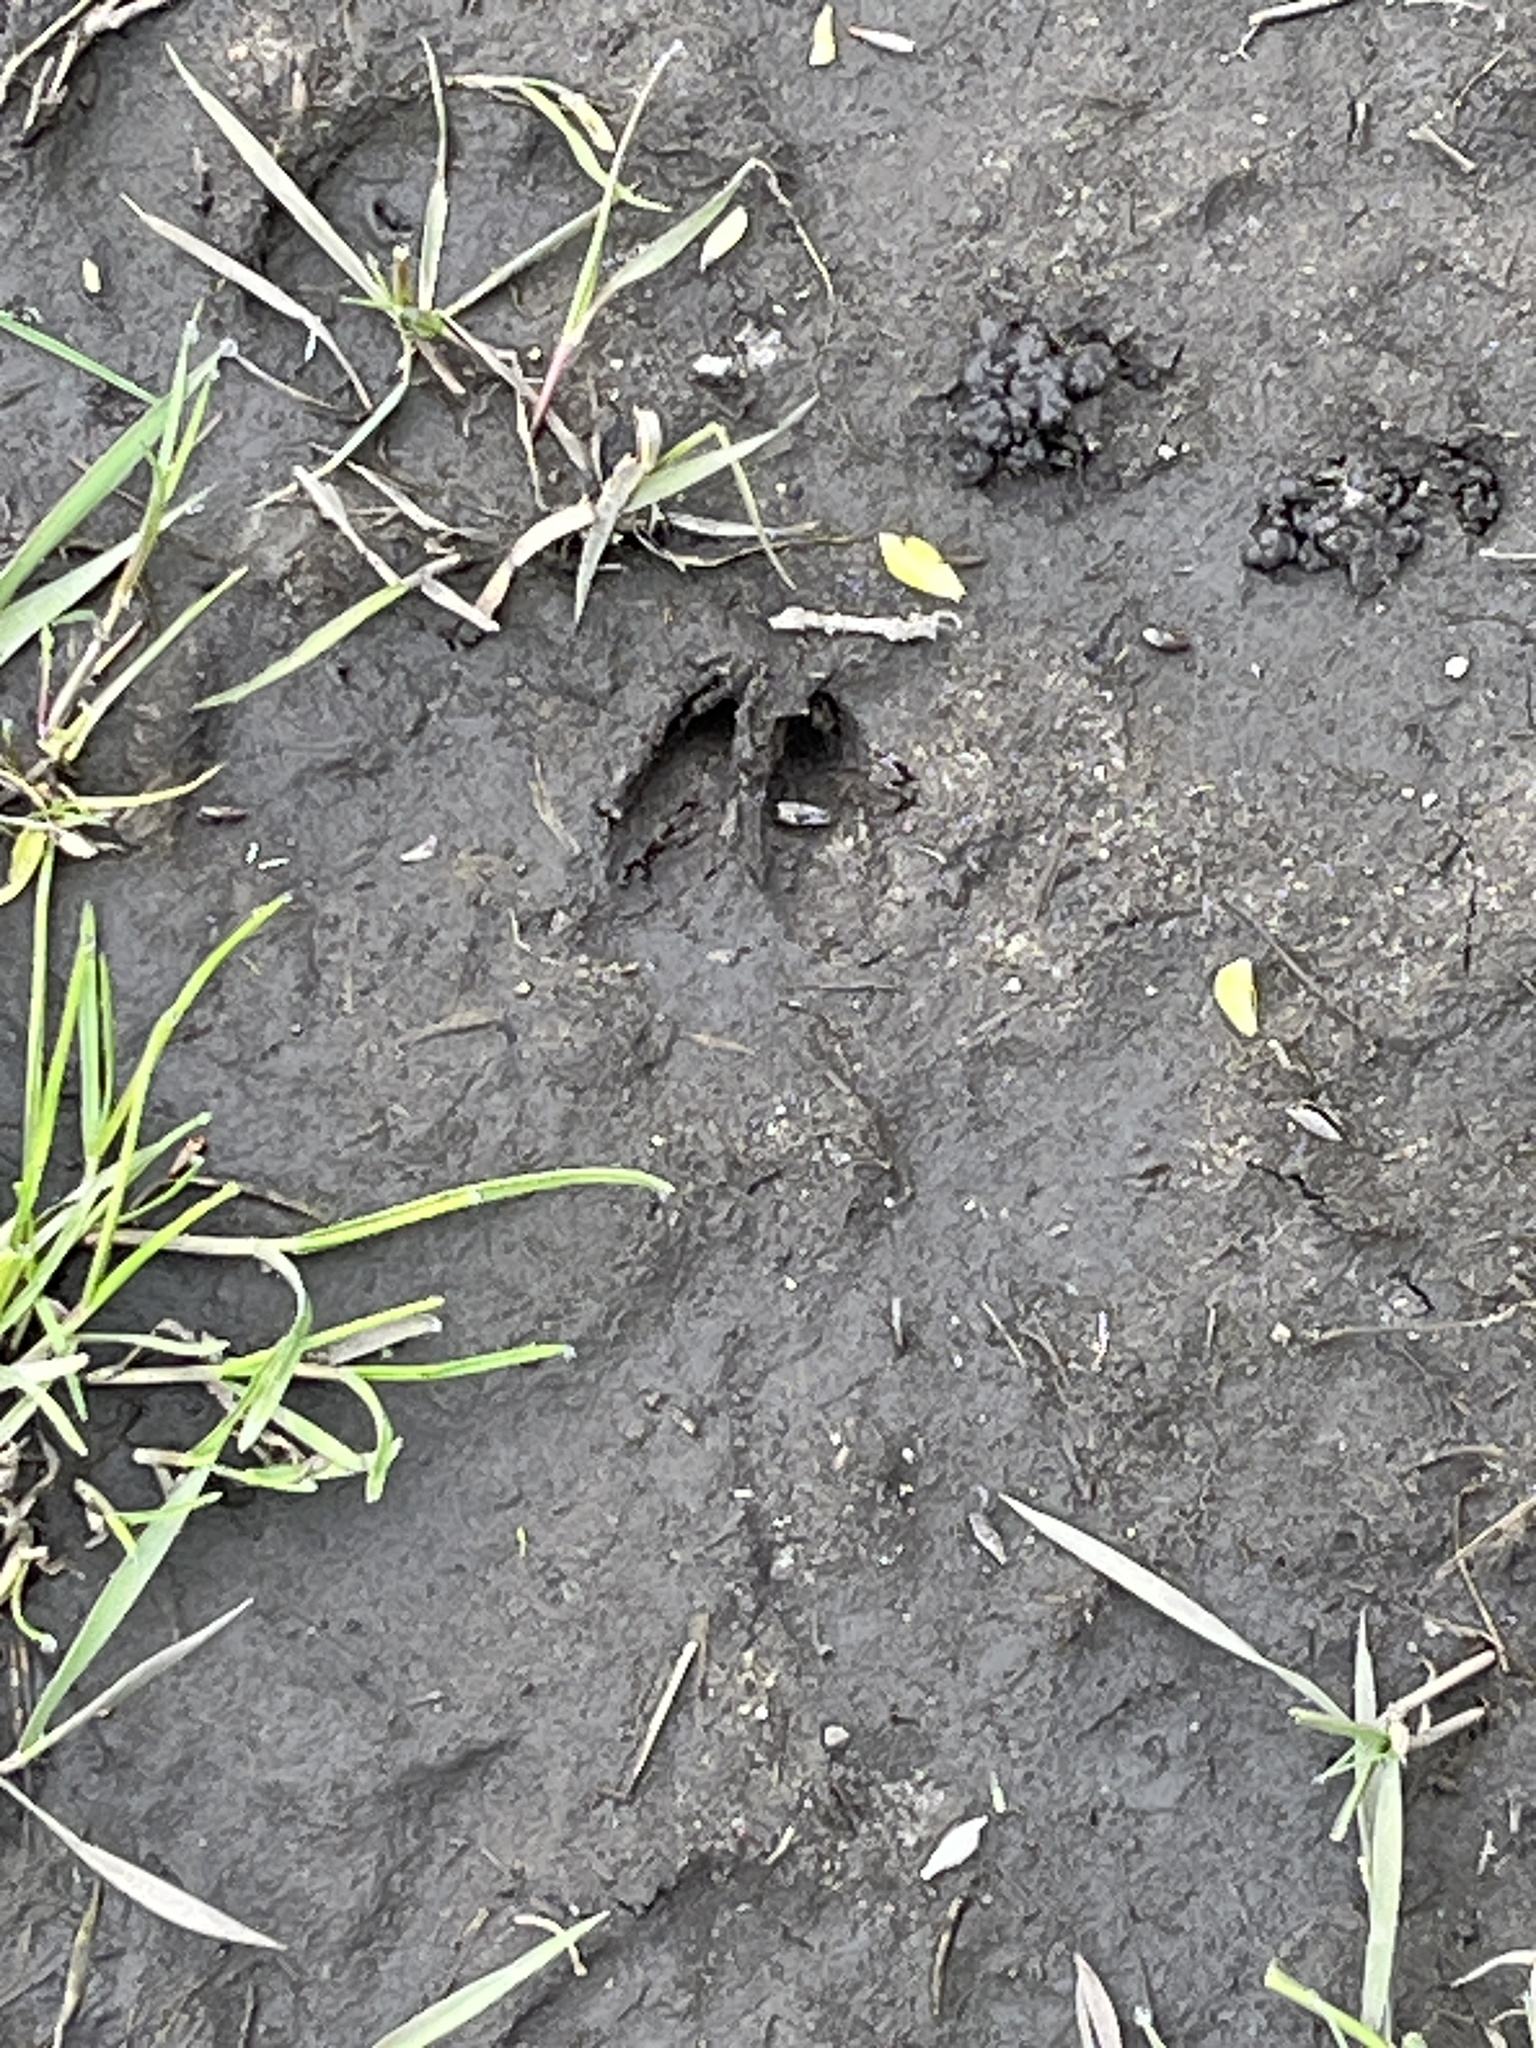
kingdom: Animalia
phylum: Chordata
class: Mammalia
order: Artiodactyla
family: Cervidae
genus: Capreolus
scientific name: Capreolus capreolus
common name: Western roe deer
